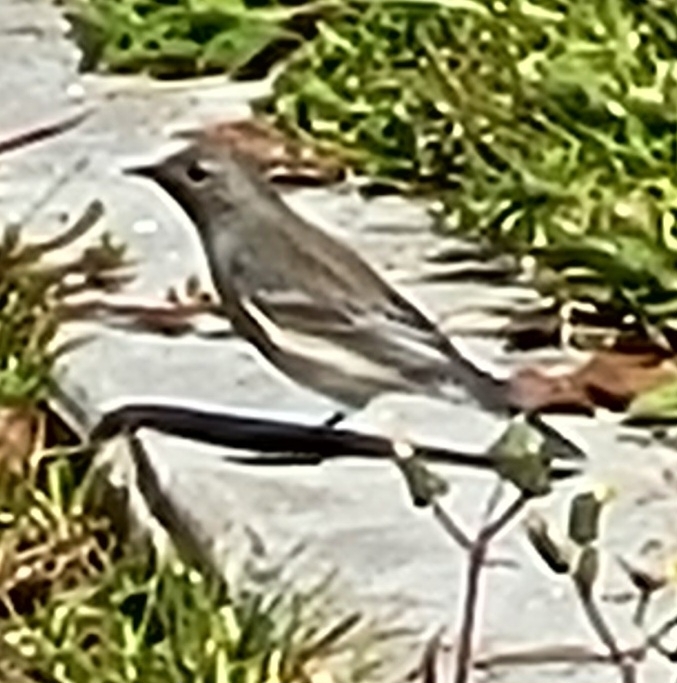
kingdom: Animalia
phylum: Chordata
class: Aves
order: Passeriformes
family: Parulidae
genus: Setophaga
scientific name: Setophaga coronata
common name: Myrtle warbler
